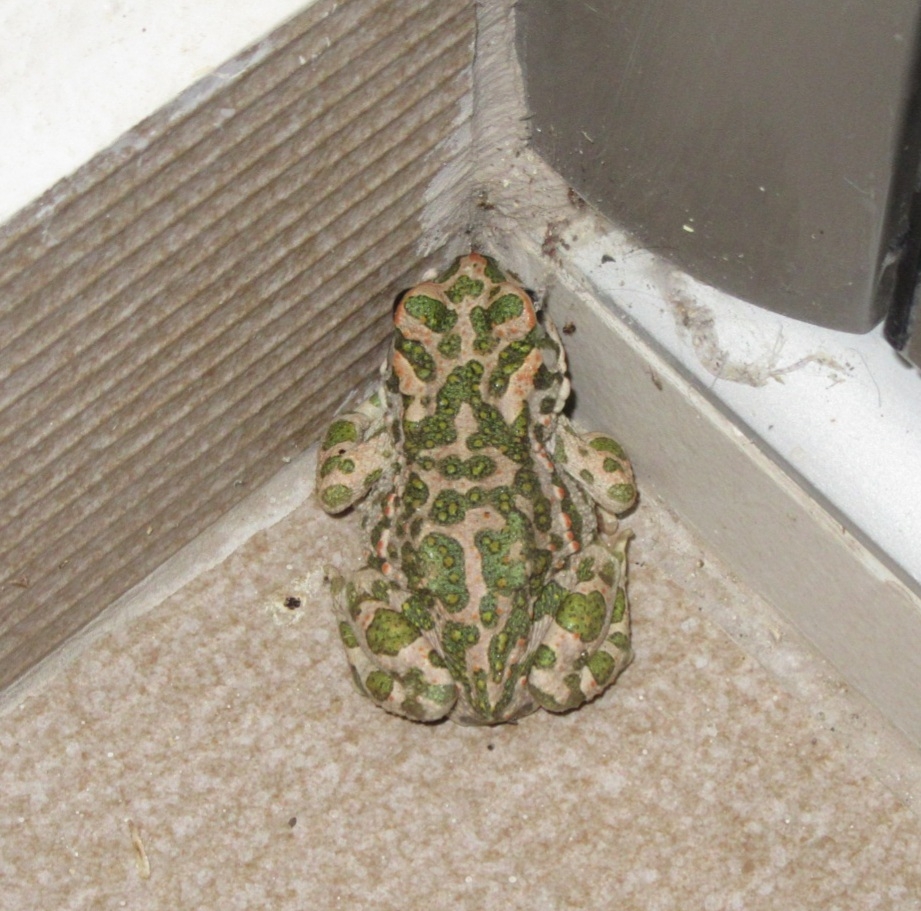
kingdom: Animalia
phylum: Chordata
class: Amphibia
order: Anura
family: Bufonidae
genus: Bufotes
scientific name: Bufotes viridis
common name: European green toad
